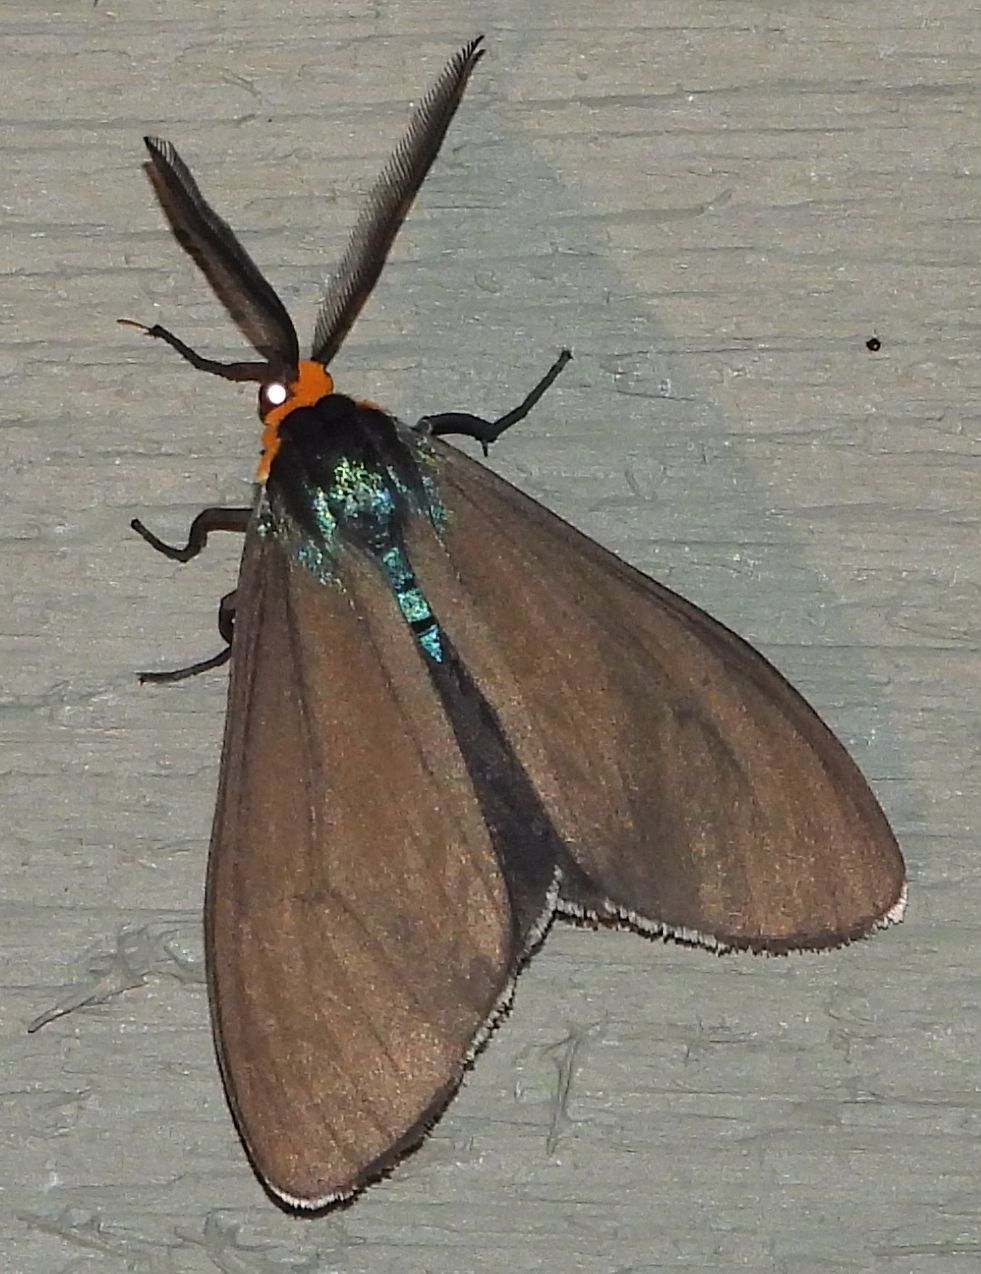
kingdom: Animalia
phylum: Arthropoda
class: Insecta
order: Lepidoptera
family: Erebidae
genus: Ctenucha
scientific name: Ctenucha virginica
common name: Virginia ctenucha moth
